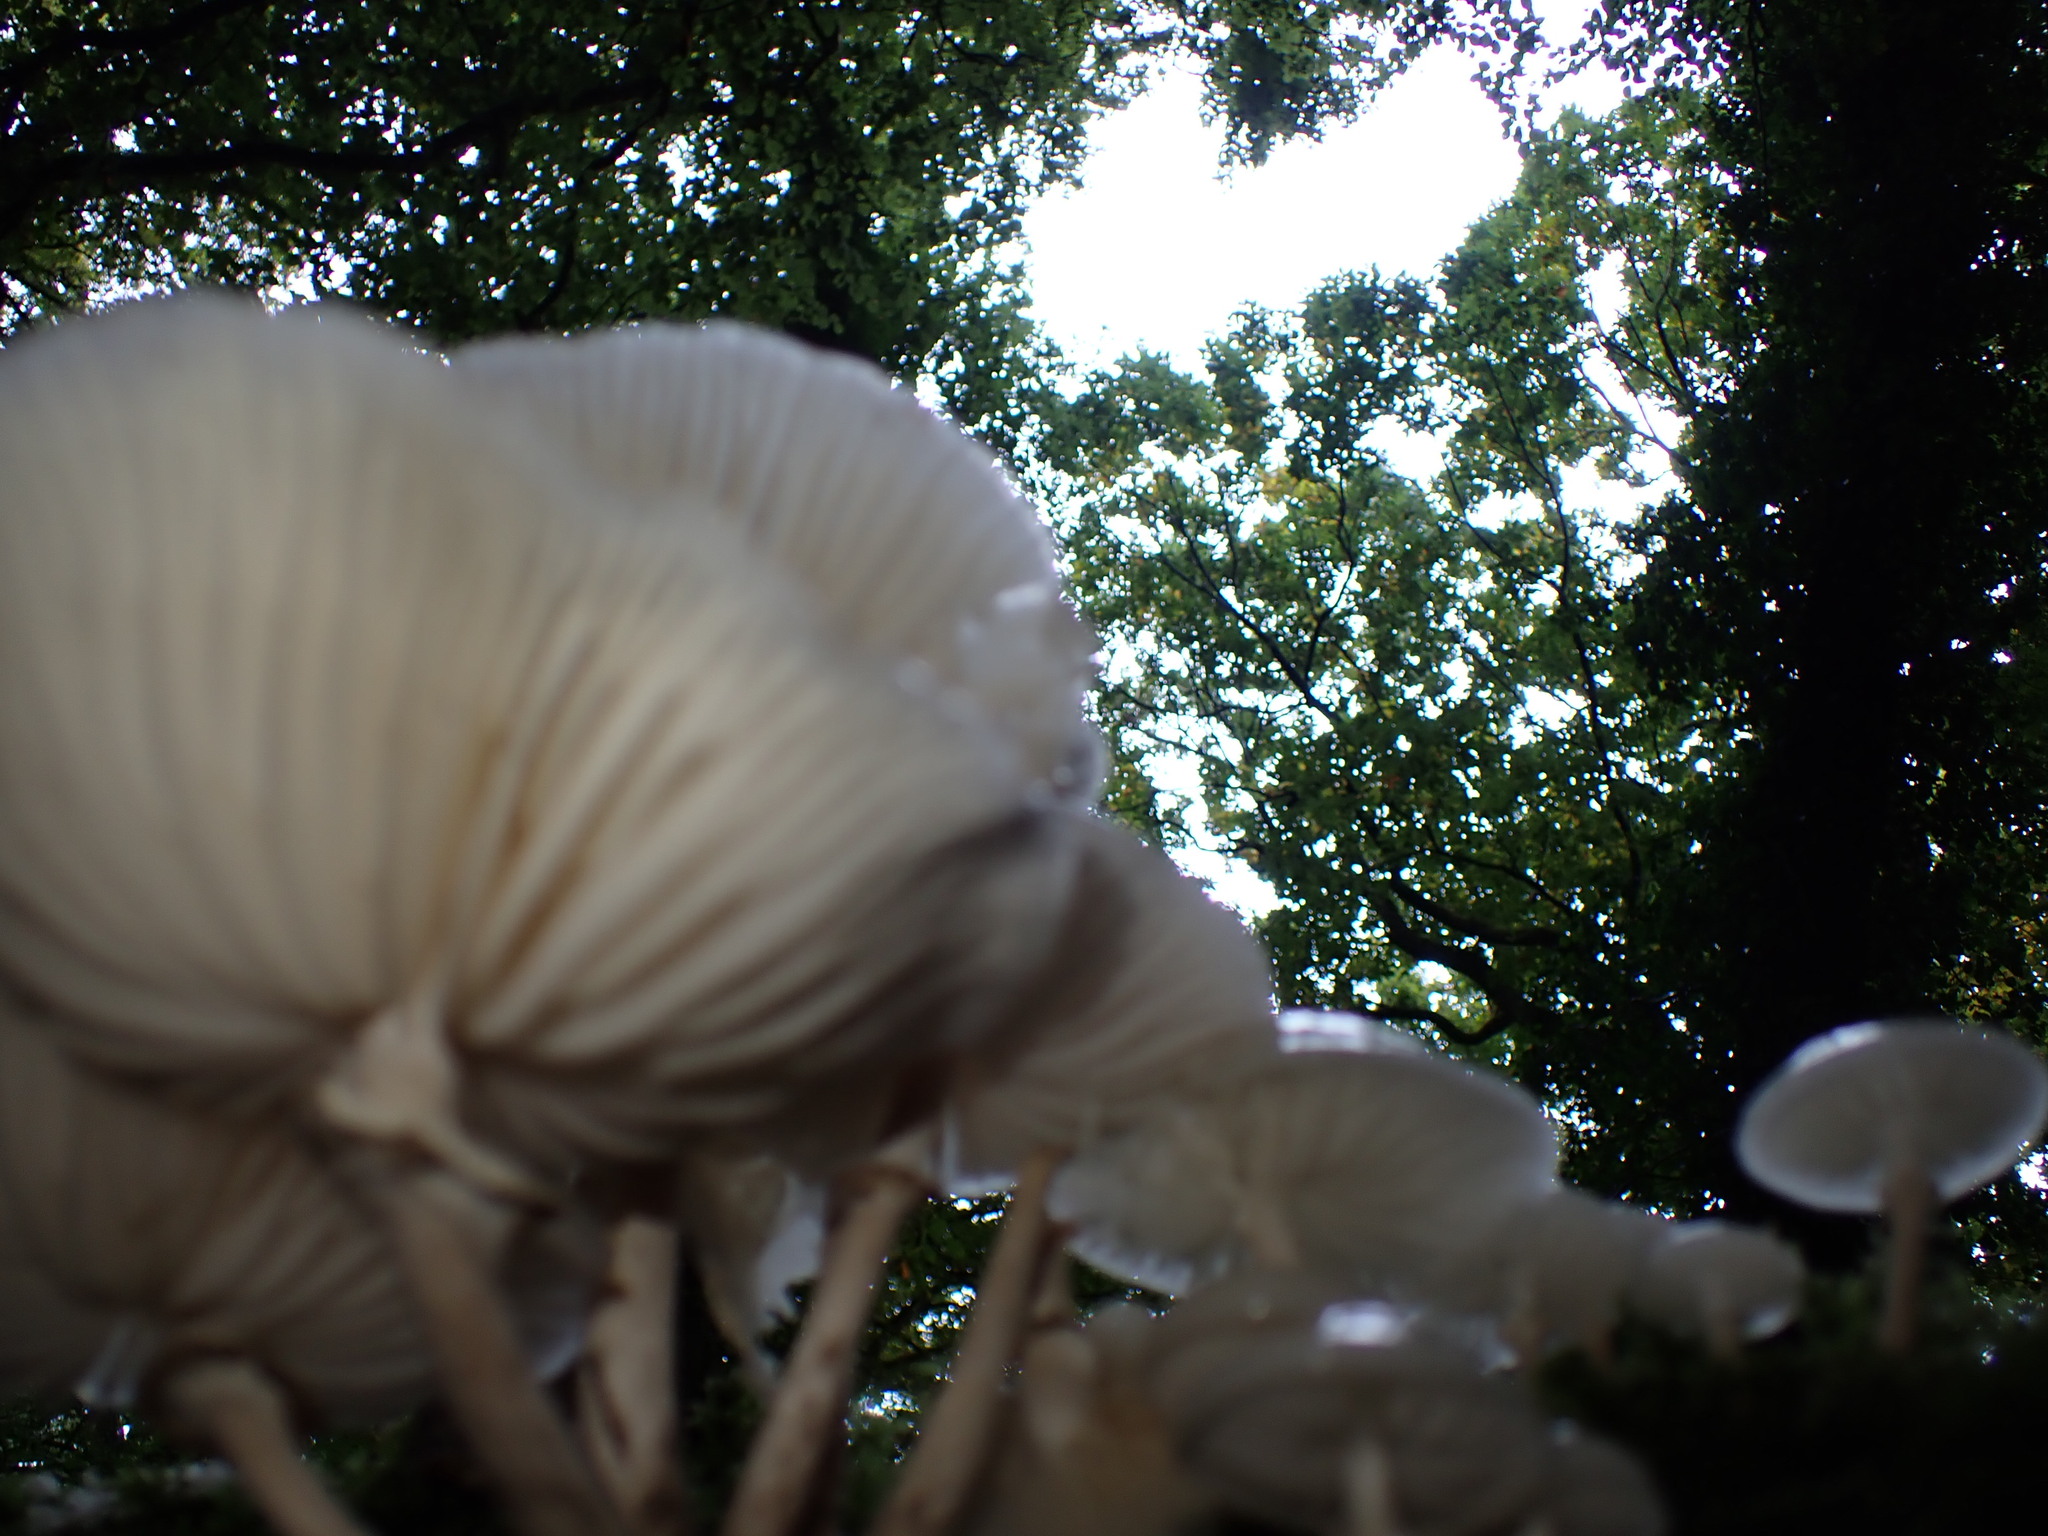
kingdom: Fungi
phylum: Basidiomycota
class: Agaricomycetes
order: Agaricales
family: Physalacriaceae
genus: Mucidula
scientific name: Mucidula mucida
